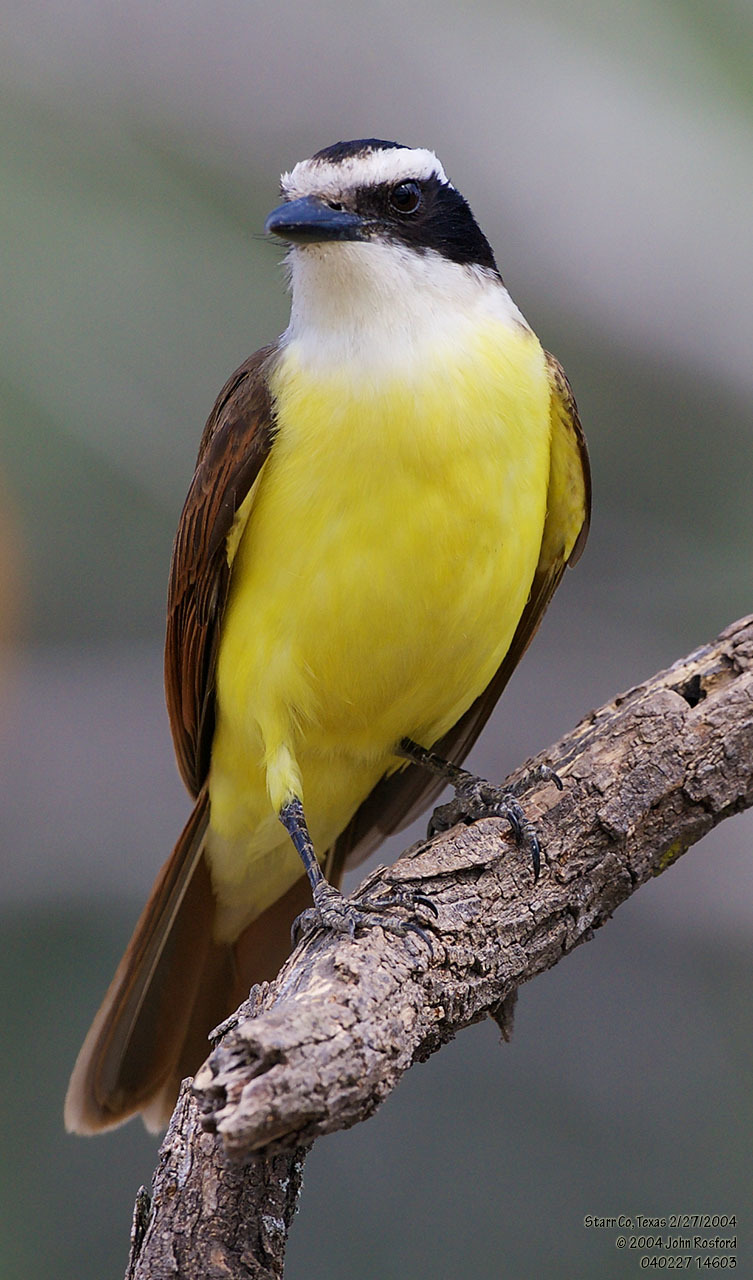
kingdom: Animalia
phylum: Chordata
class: Aves
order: Passeriformes
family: Tyrannidae
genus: Pitangus
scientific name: Pitangus sulphuratus
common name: Great kiskadee
